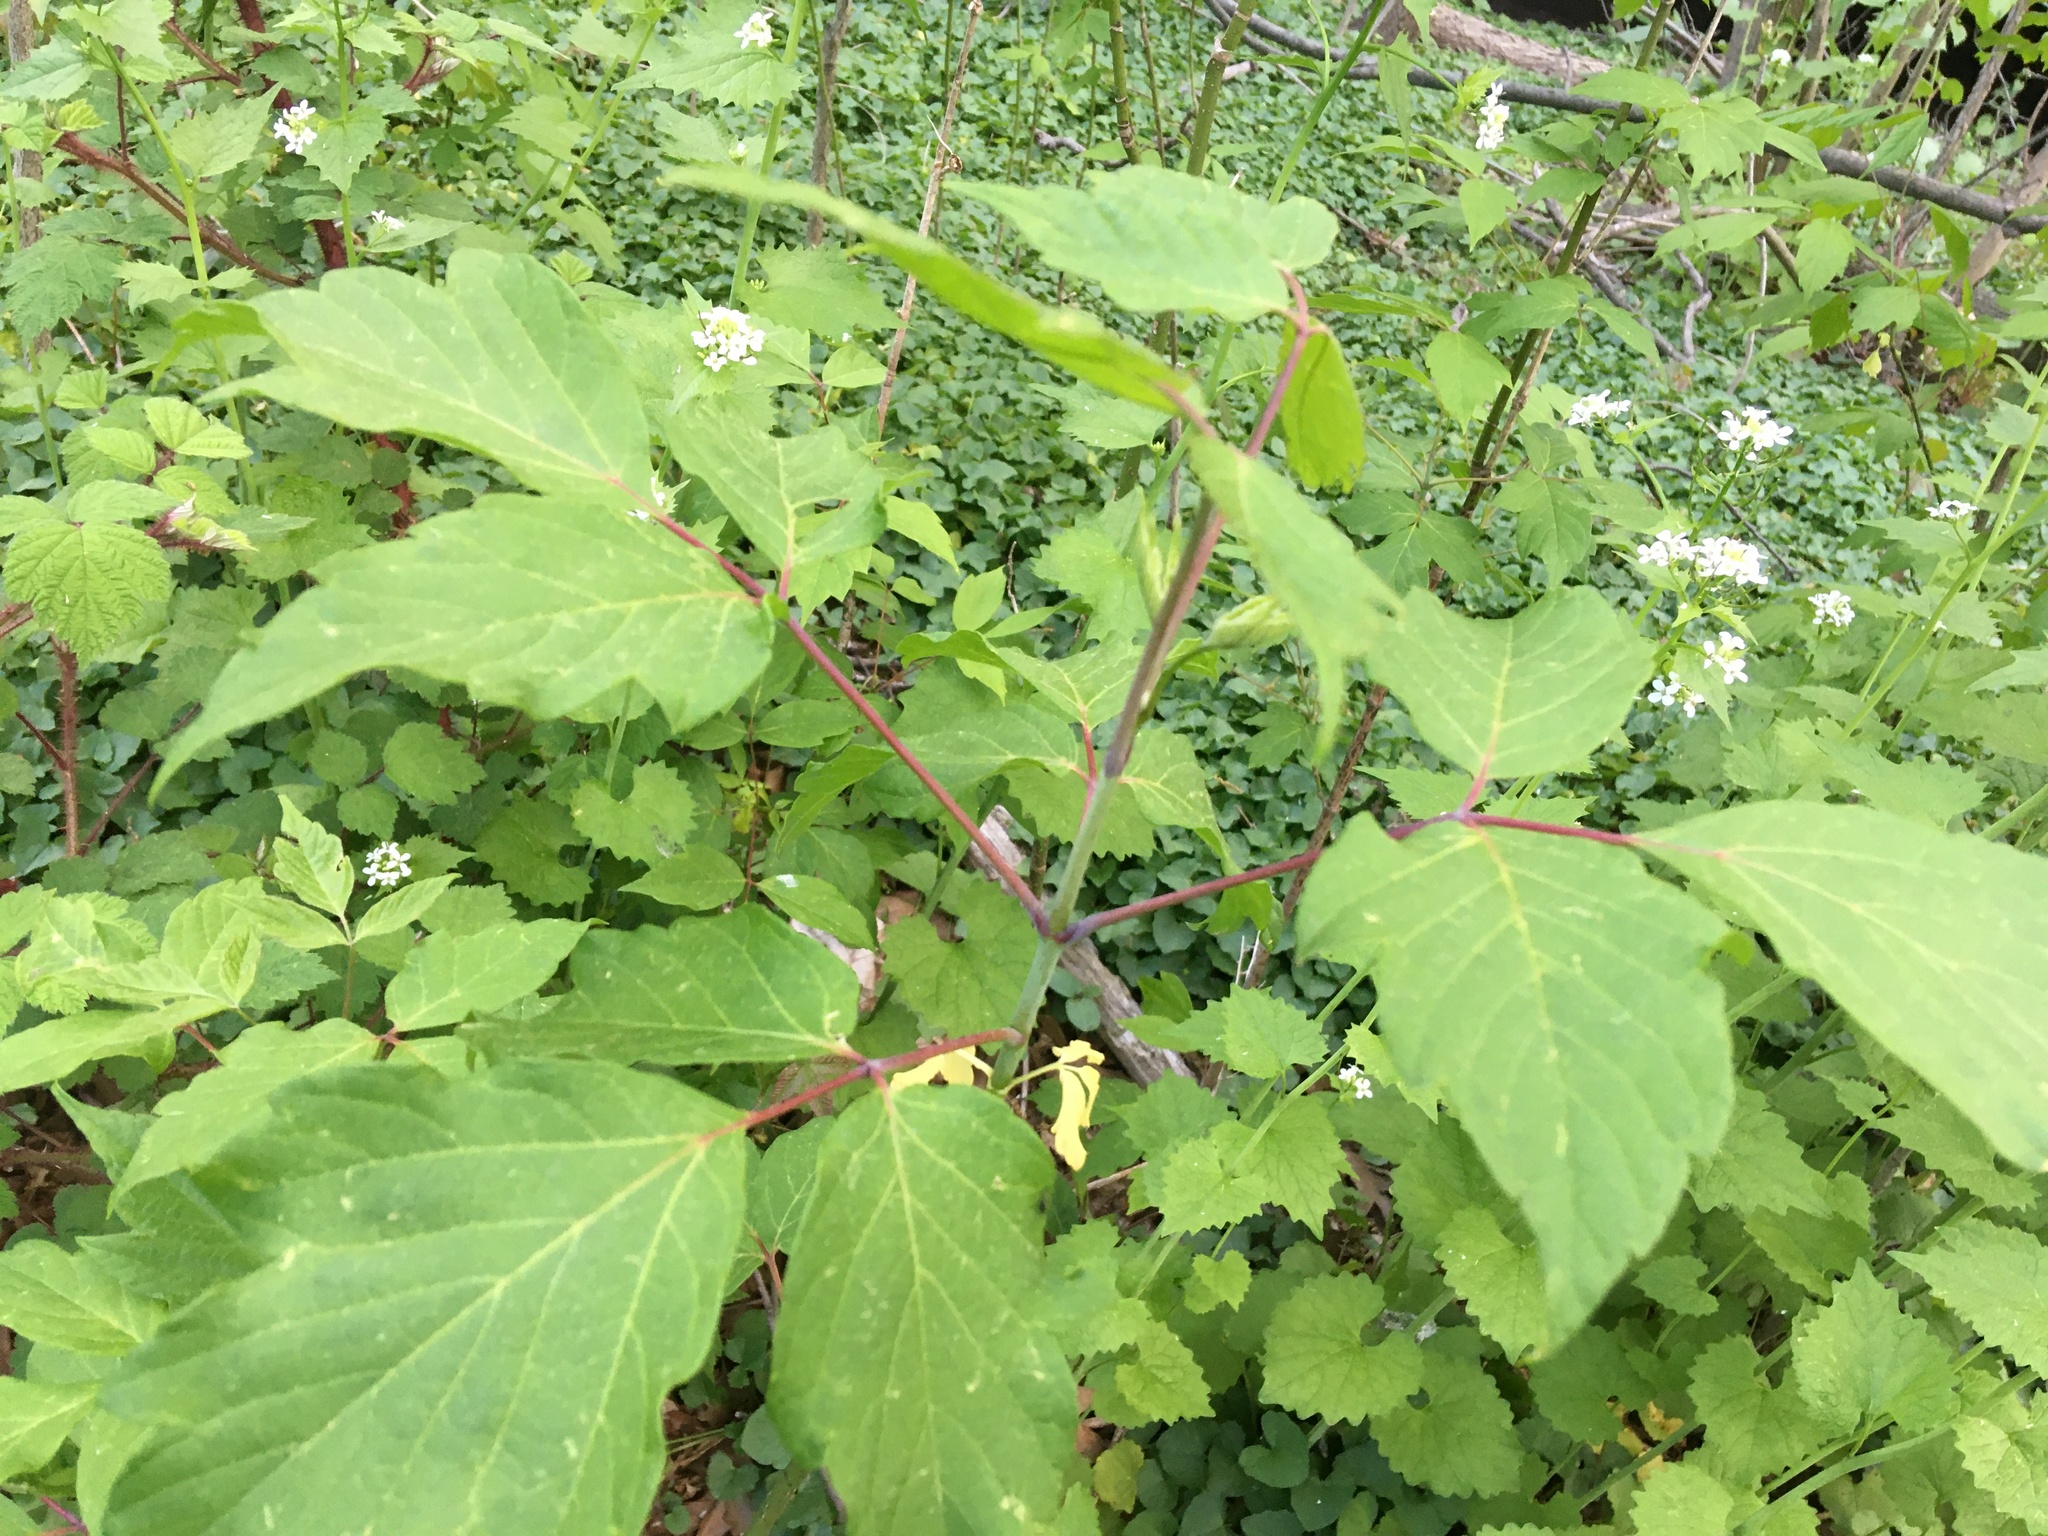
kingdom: Plantae
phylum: Tracheophyta
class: Magnoliopsida
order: Sapindales
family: Sapindaceae
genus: Acer
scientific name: Acer negundo
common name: Ashleaf maple
